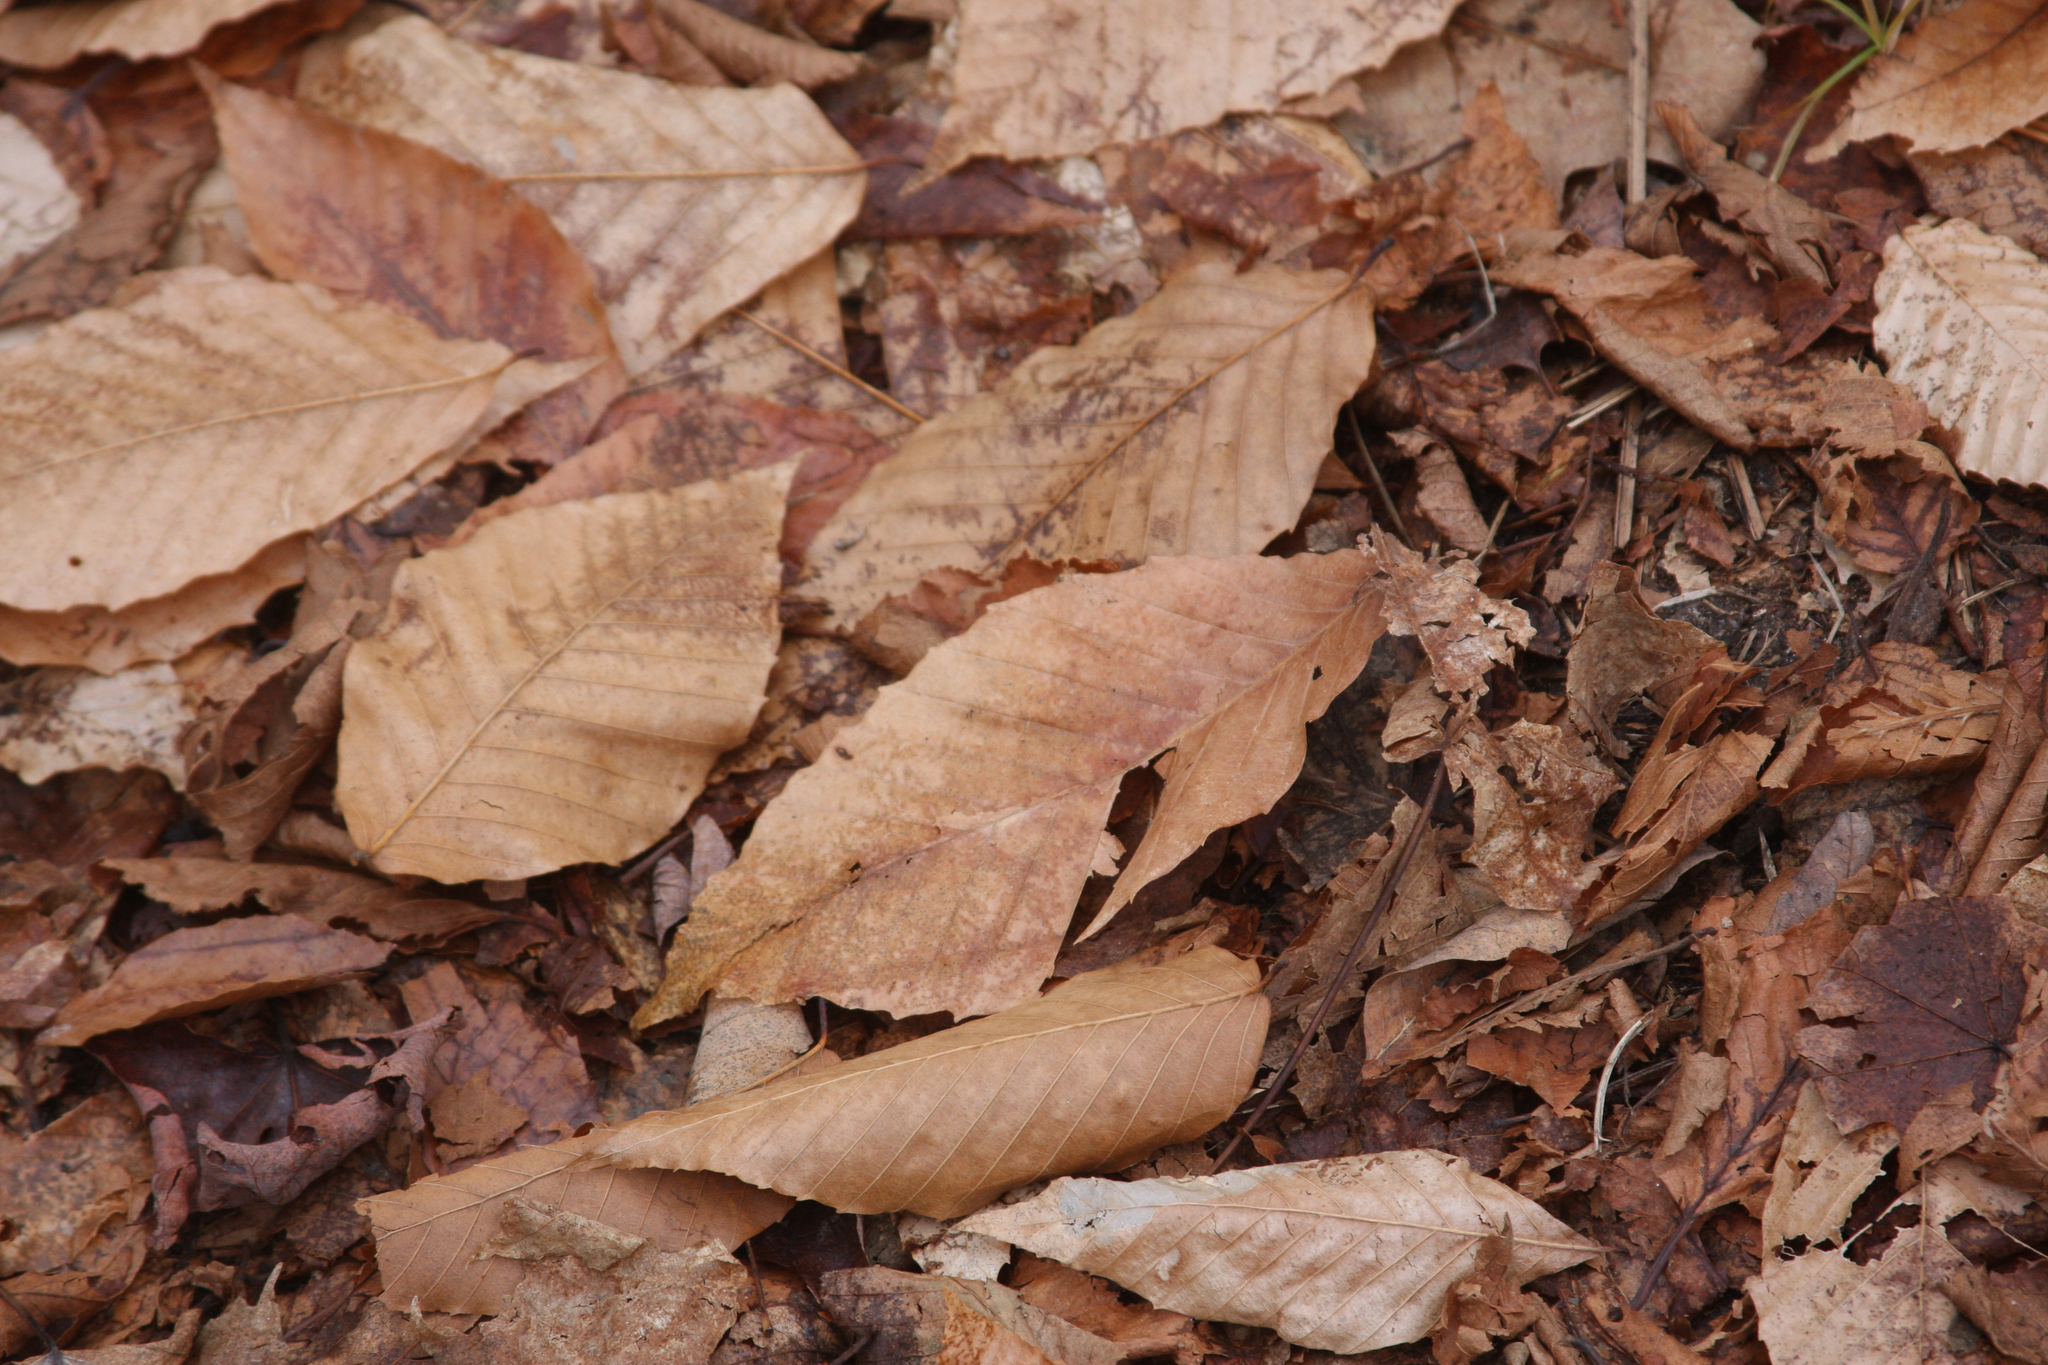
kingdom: Plantae
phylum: Tracheophyta
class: Magnoliopsida
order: Fagales
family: Fagaceae
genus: Fagus
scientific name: Fagus grandifolia
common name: American beech
